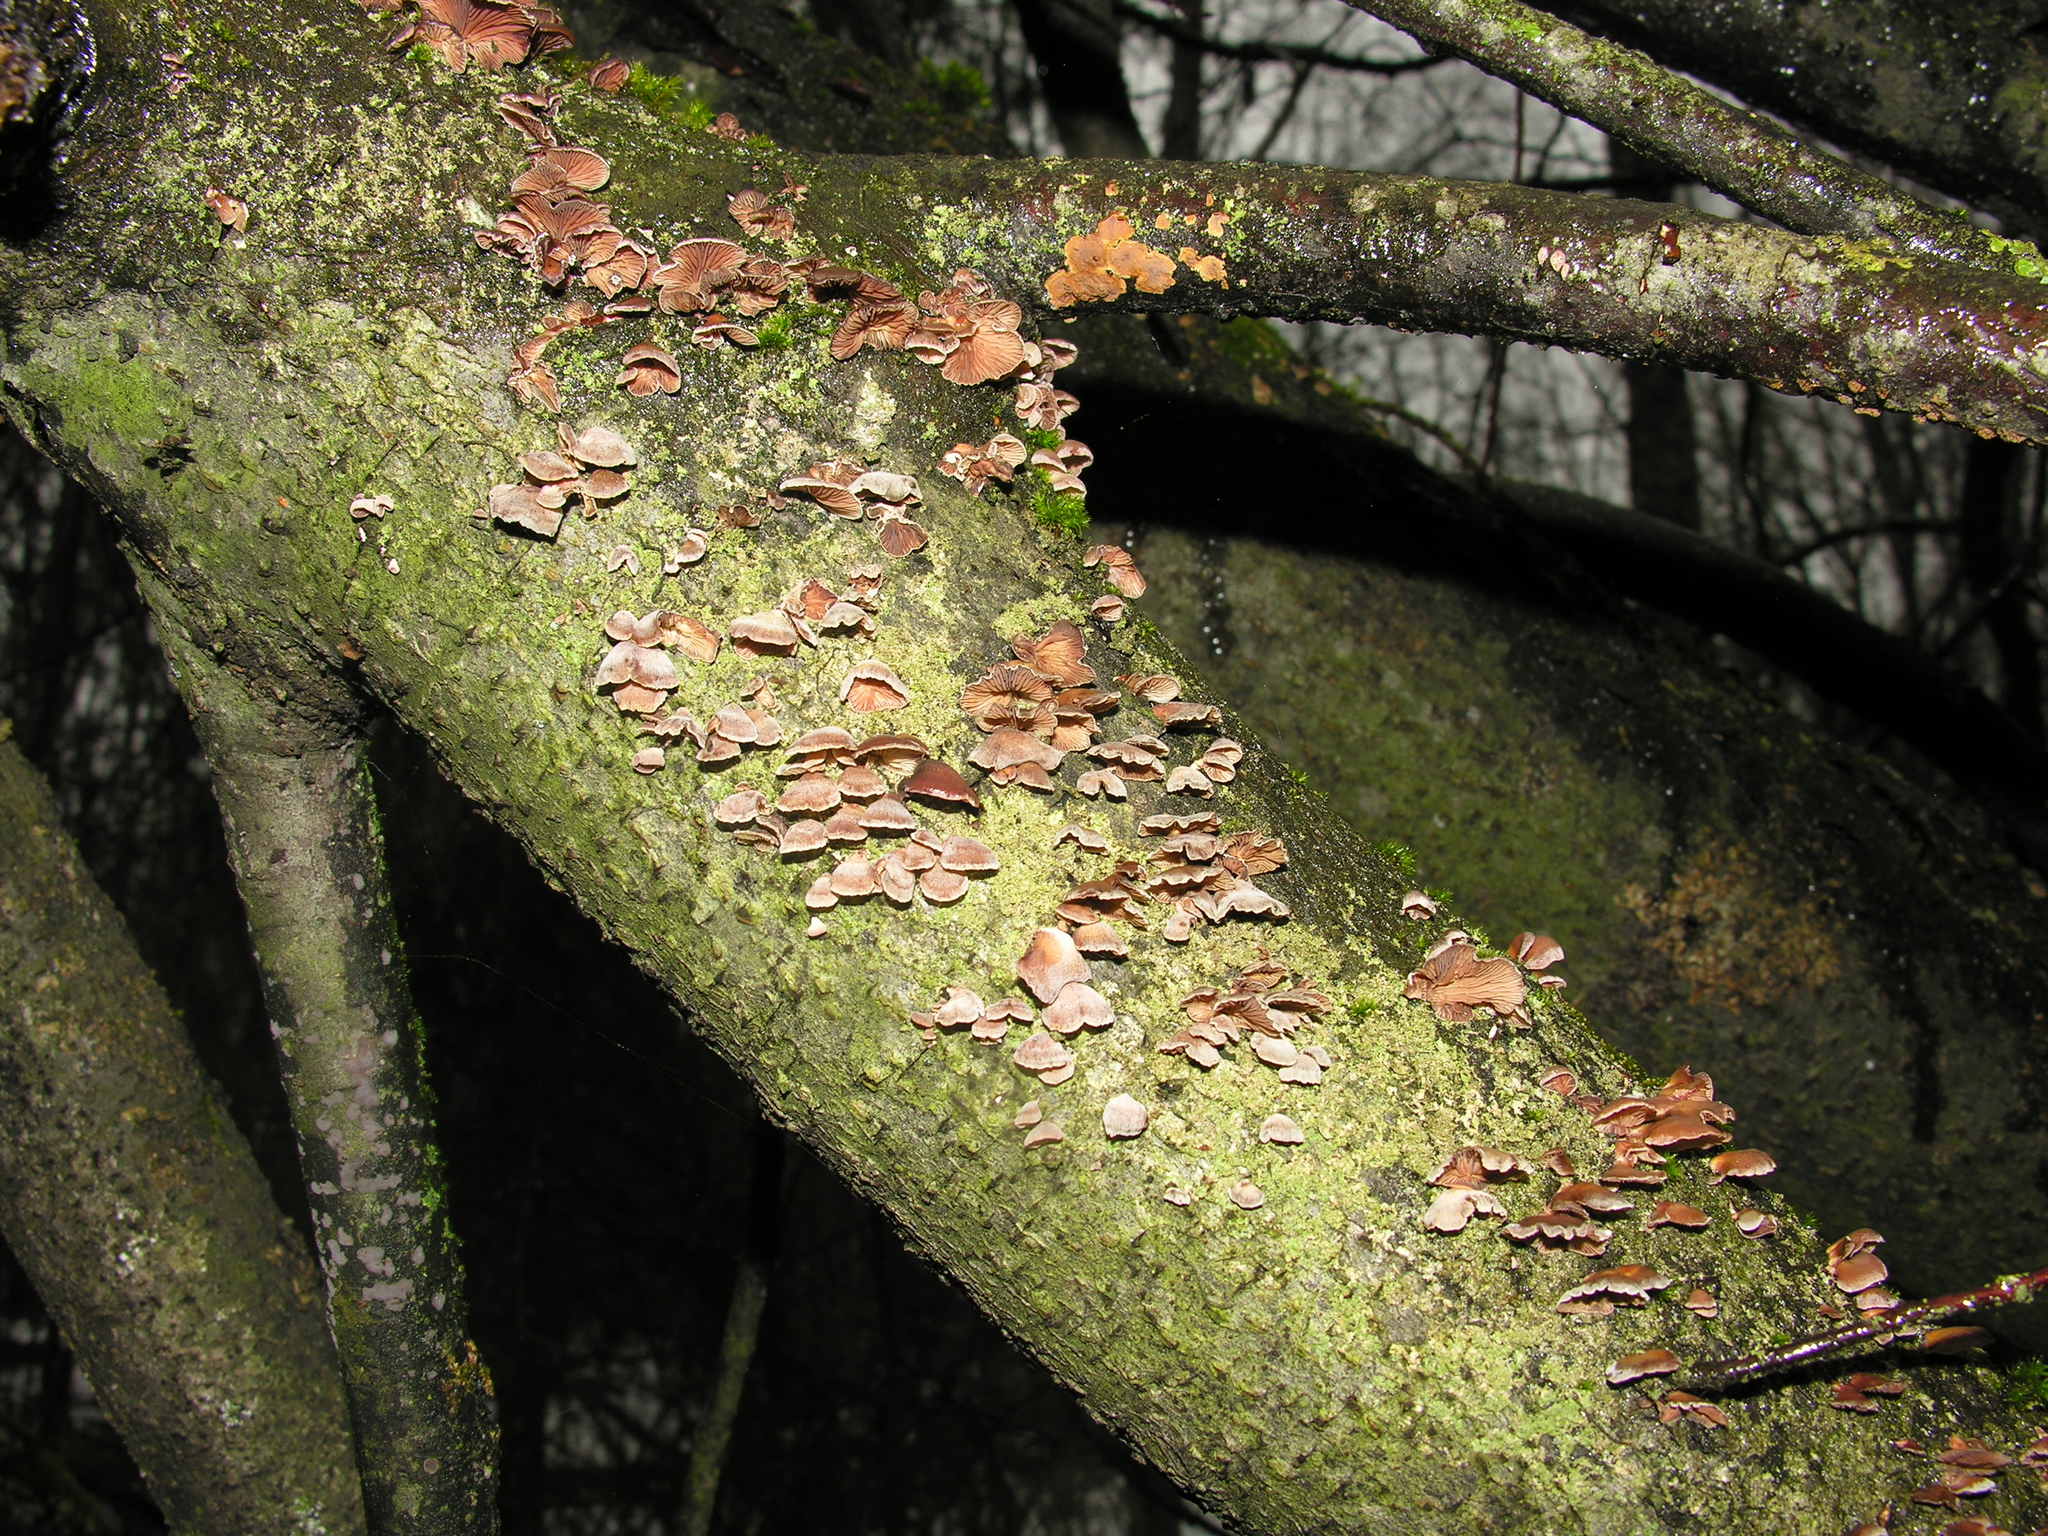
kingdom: Fungi
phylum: Basidiomycota
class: Agaricomycetes
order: Agaricales
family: Mycenaceae
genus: Panellus
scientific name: Panellus ringens
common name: Winter oysterling
